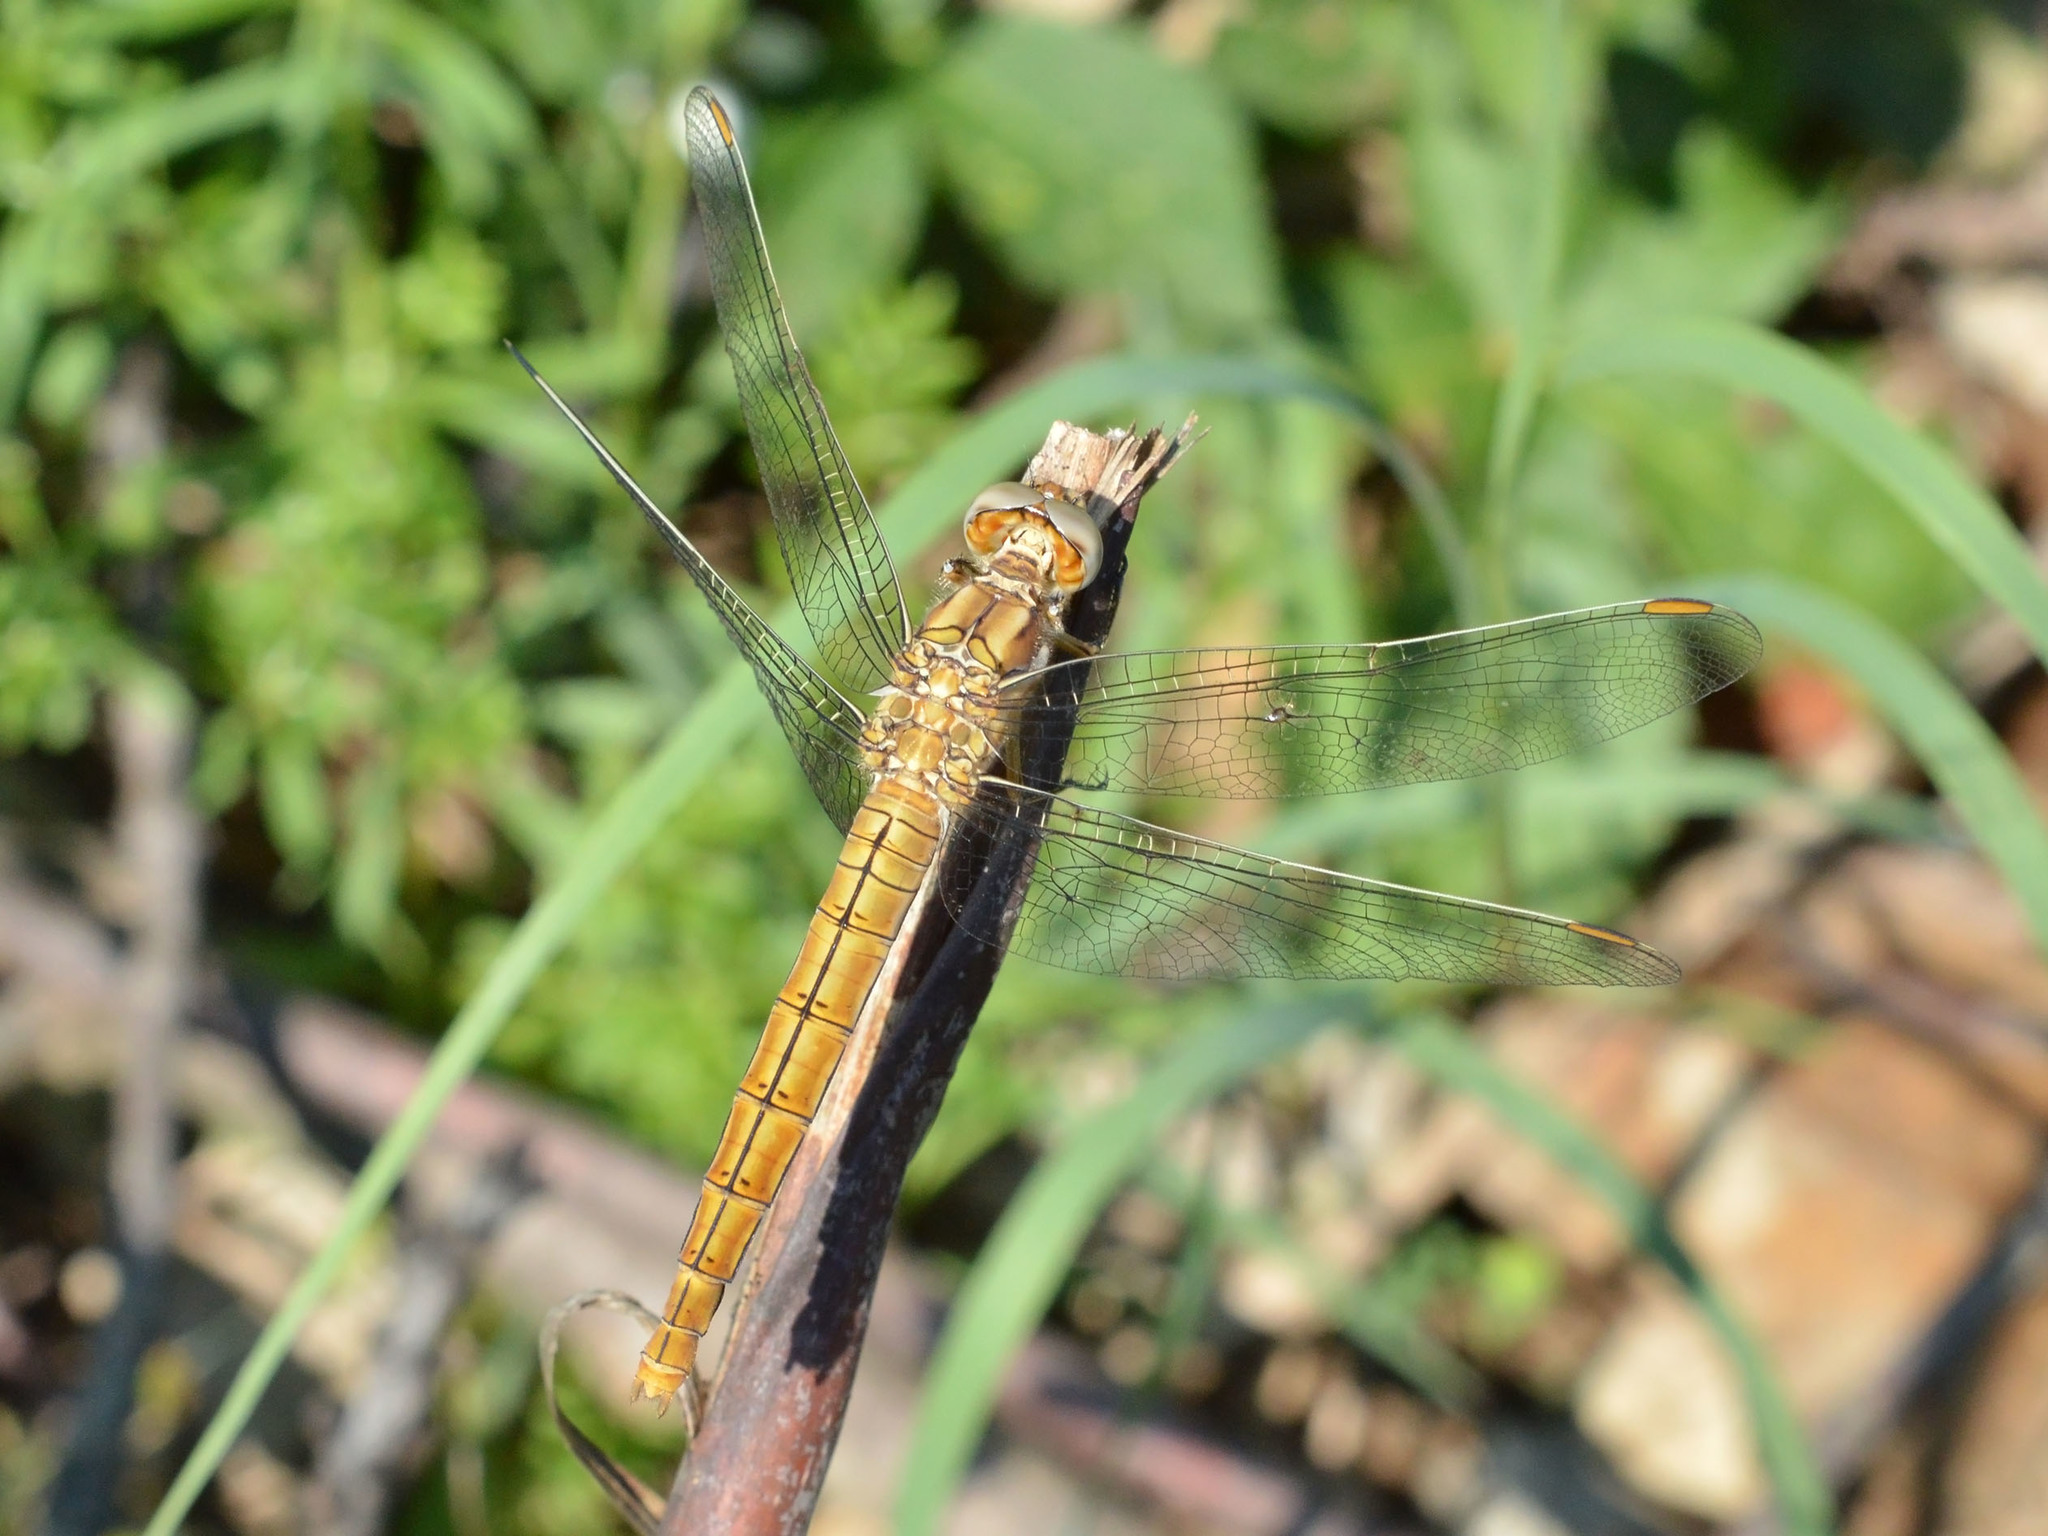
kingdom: Animalia
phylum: Arthropoda
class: Insecta
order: Odonata
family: Libellulidae
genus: Orthetrum
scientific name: Orthetrum brunneum
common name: Southern skimmer
